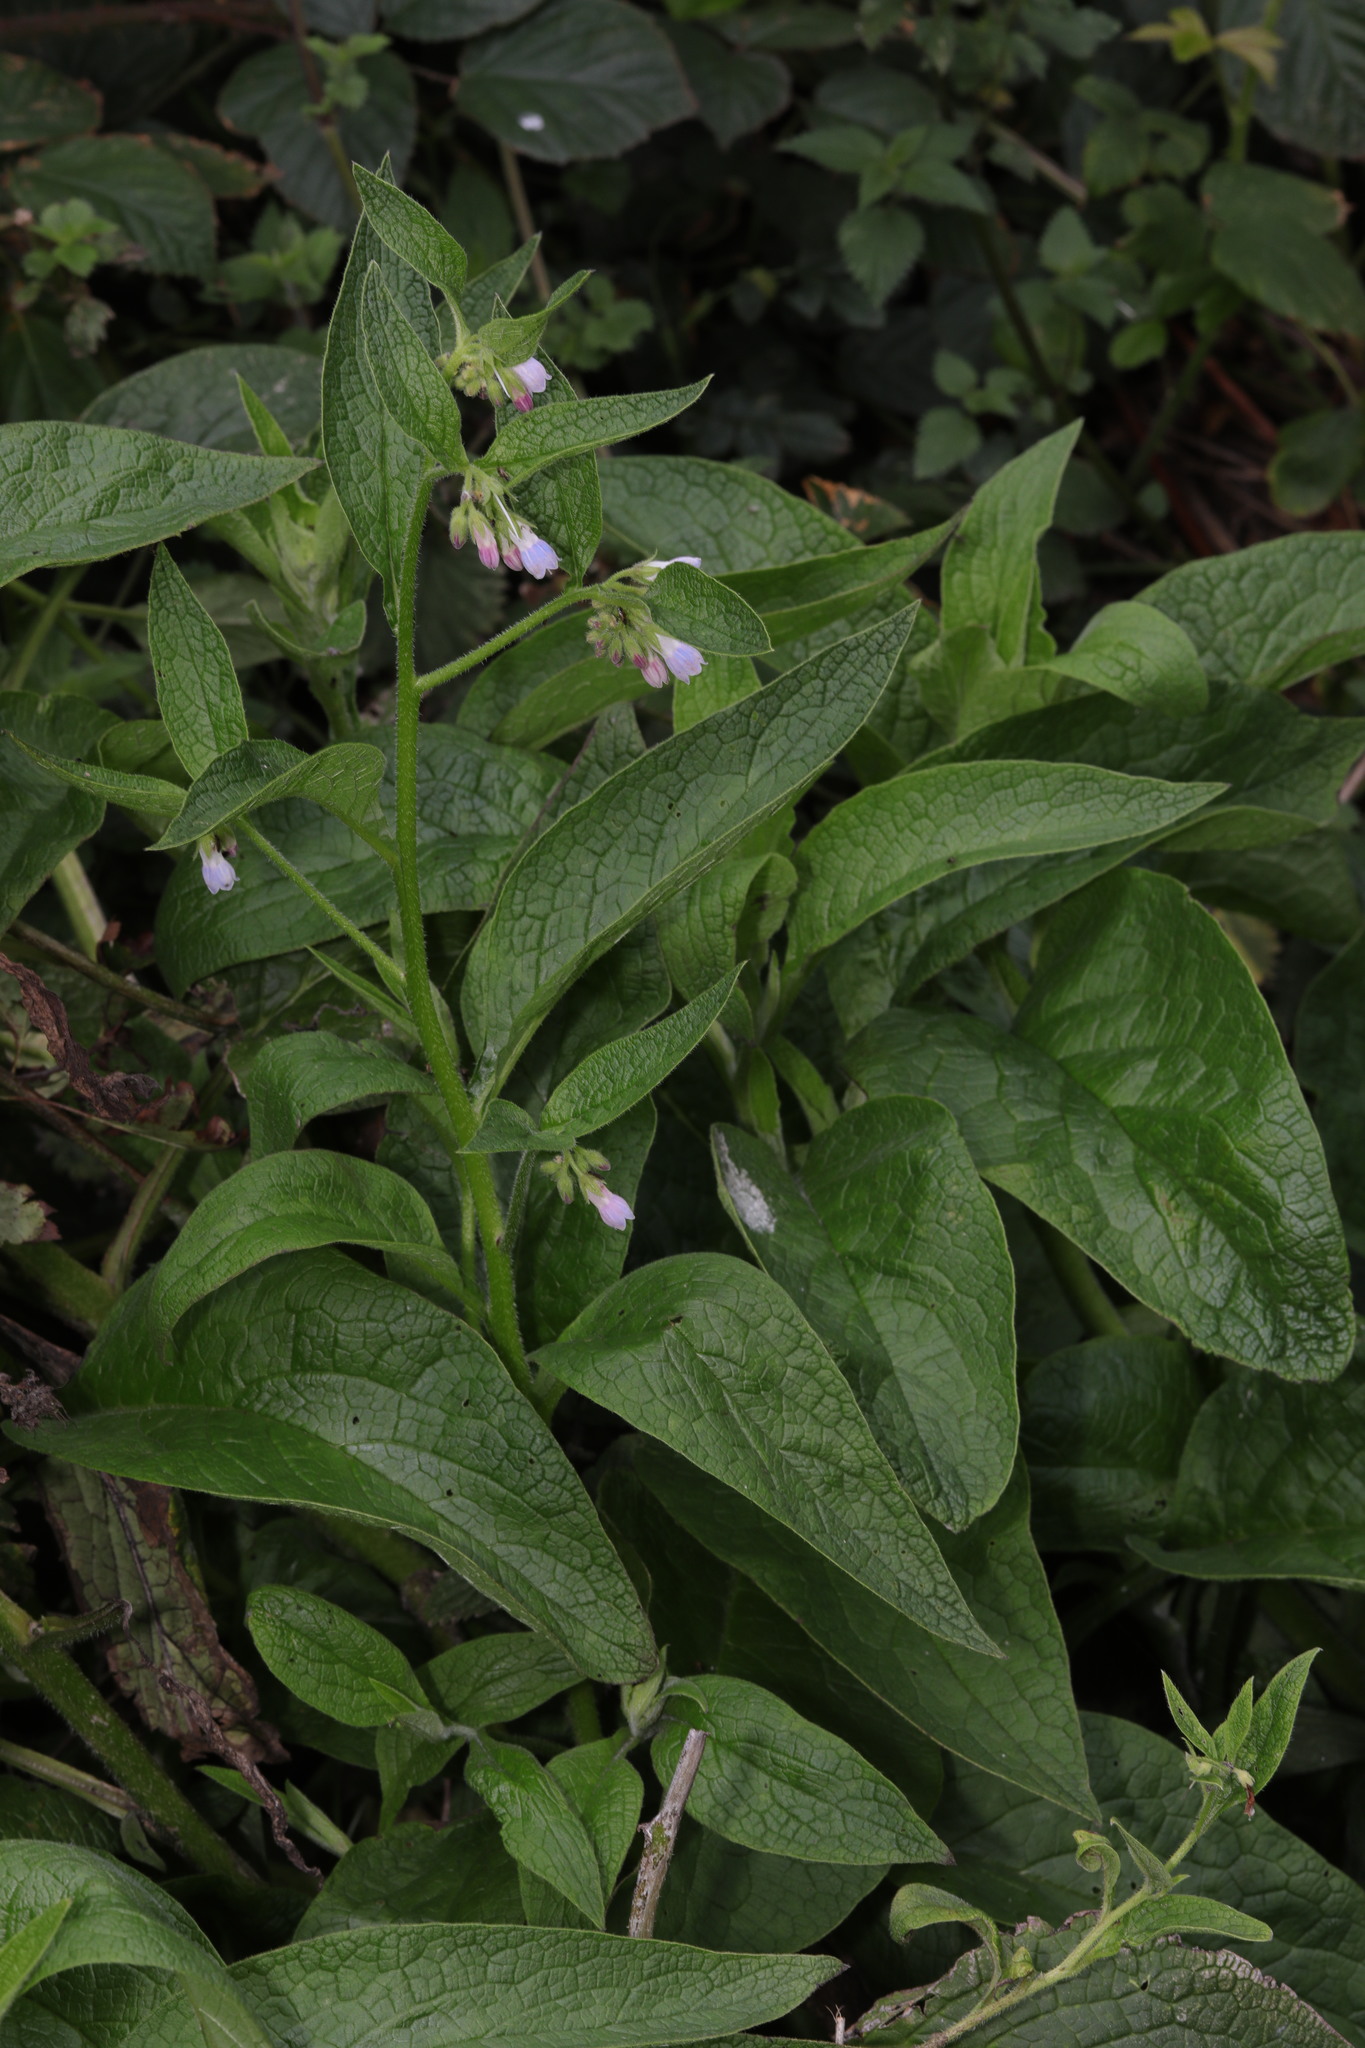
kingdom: Plantae
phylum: Tracheophyta
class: Magnoliopsida
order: Boraginales
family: Boraginaceae
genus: Symphytum
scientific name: Symphytum uplandicum
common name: Russian comfrey
